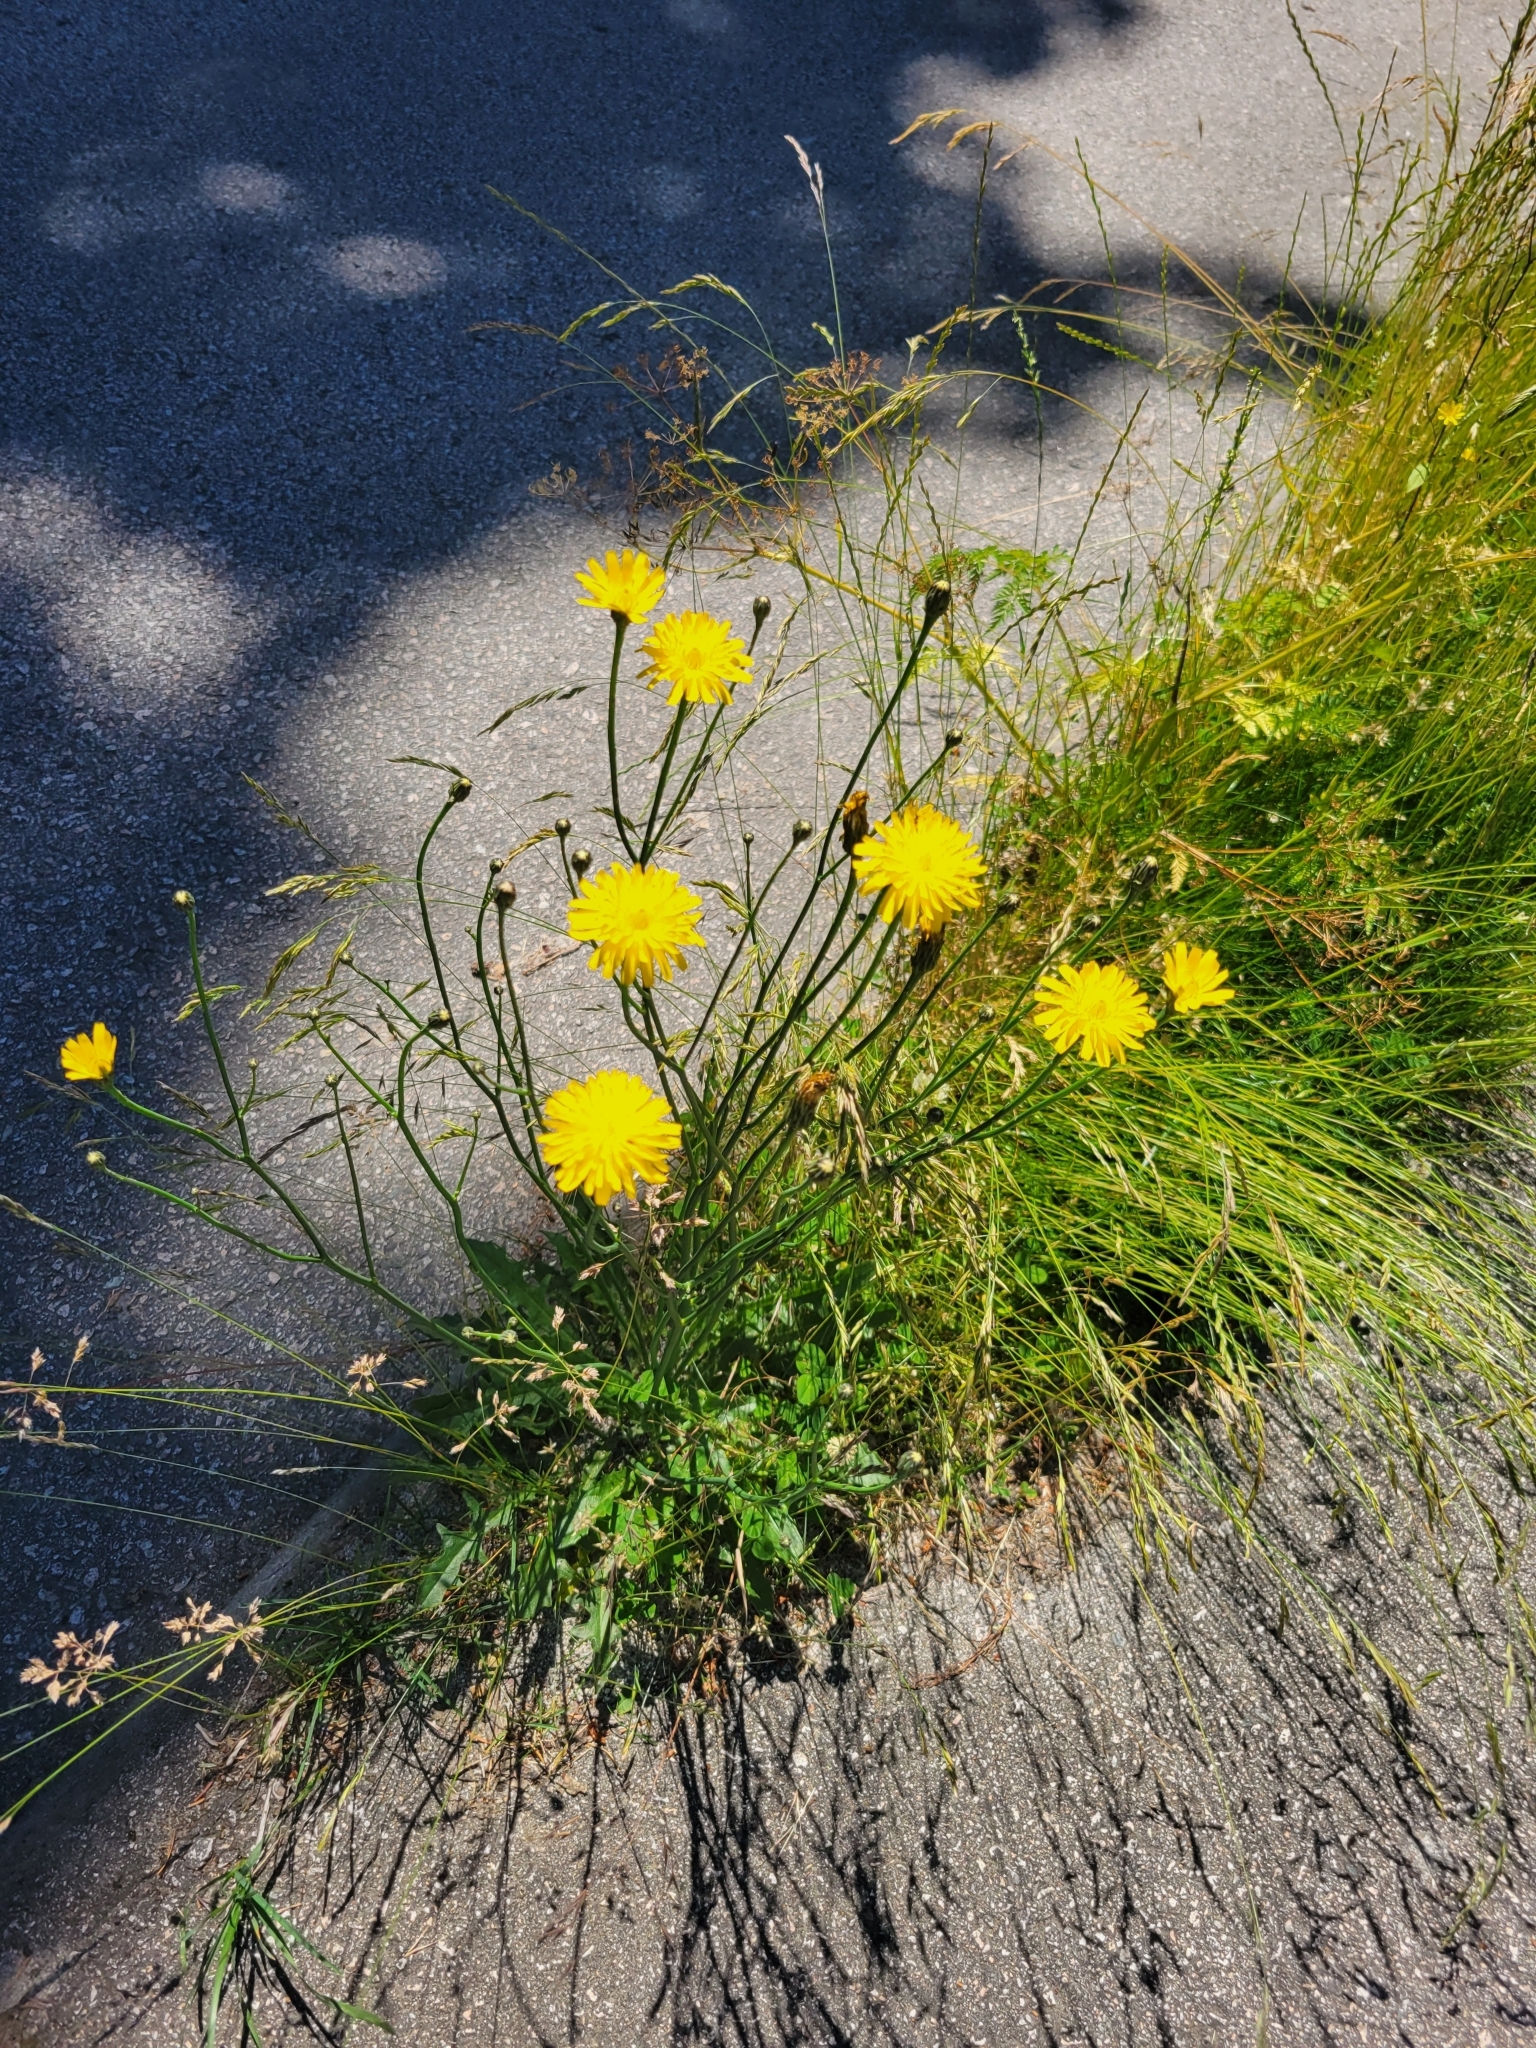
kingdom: Plantae
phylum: Tracheophyta
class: Magnoliopsida
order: Asterales
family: Asteraceae
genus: Hypochaeris
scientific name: Hypochaeris radicata
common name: Flatweed
